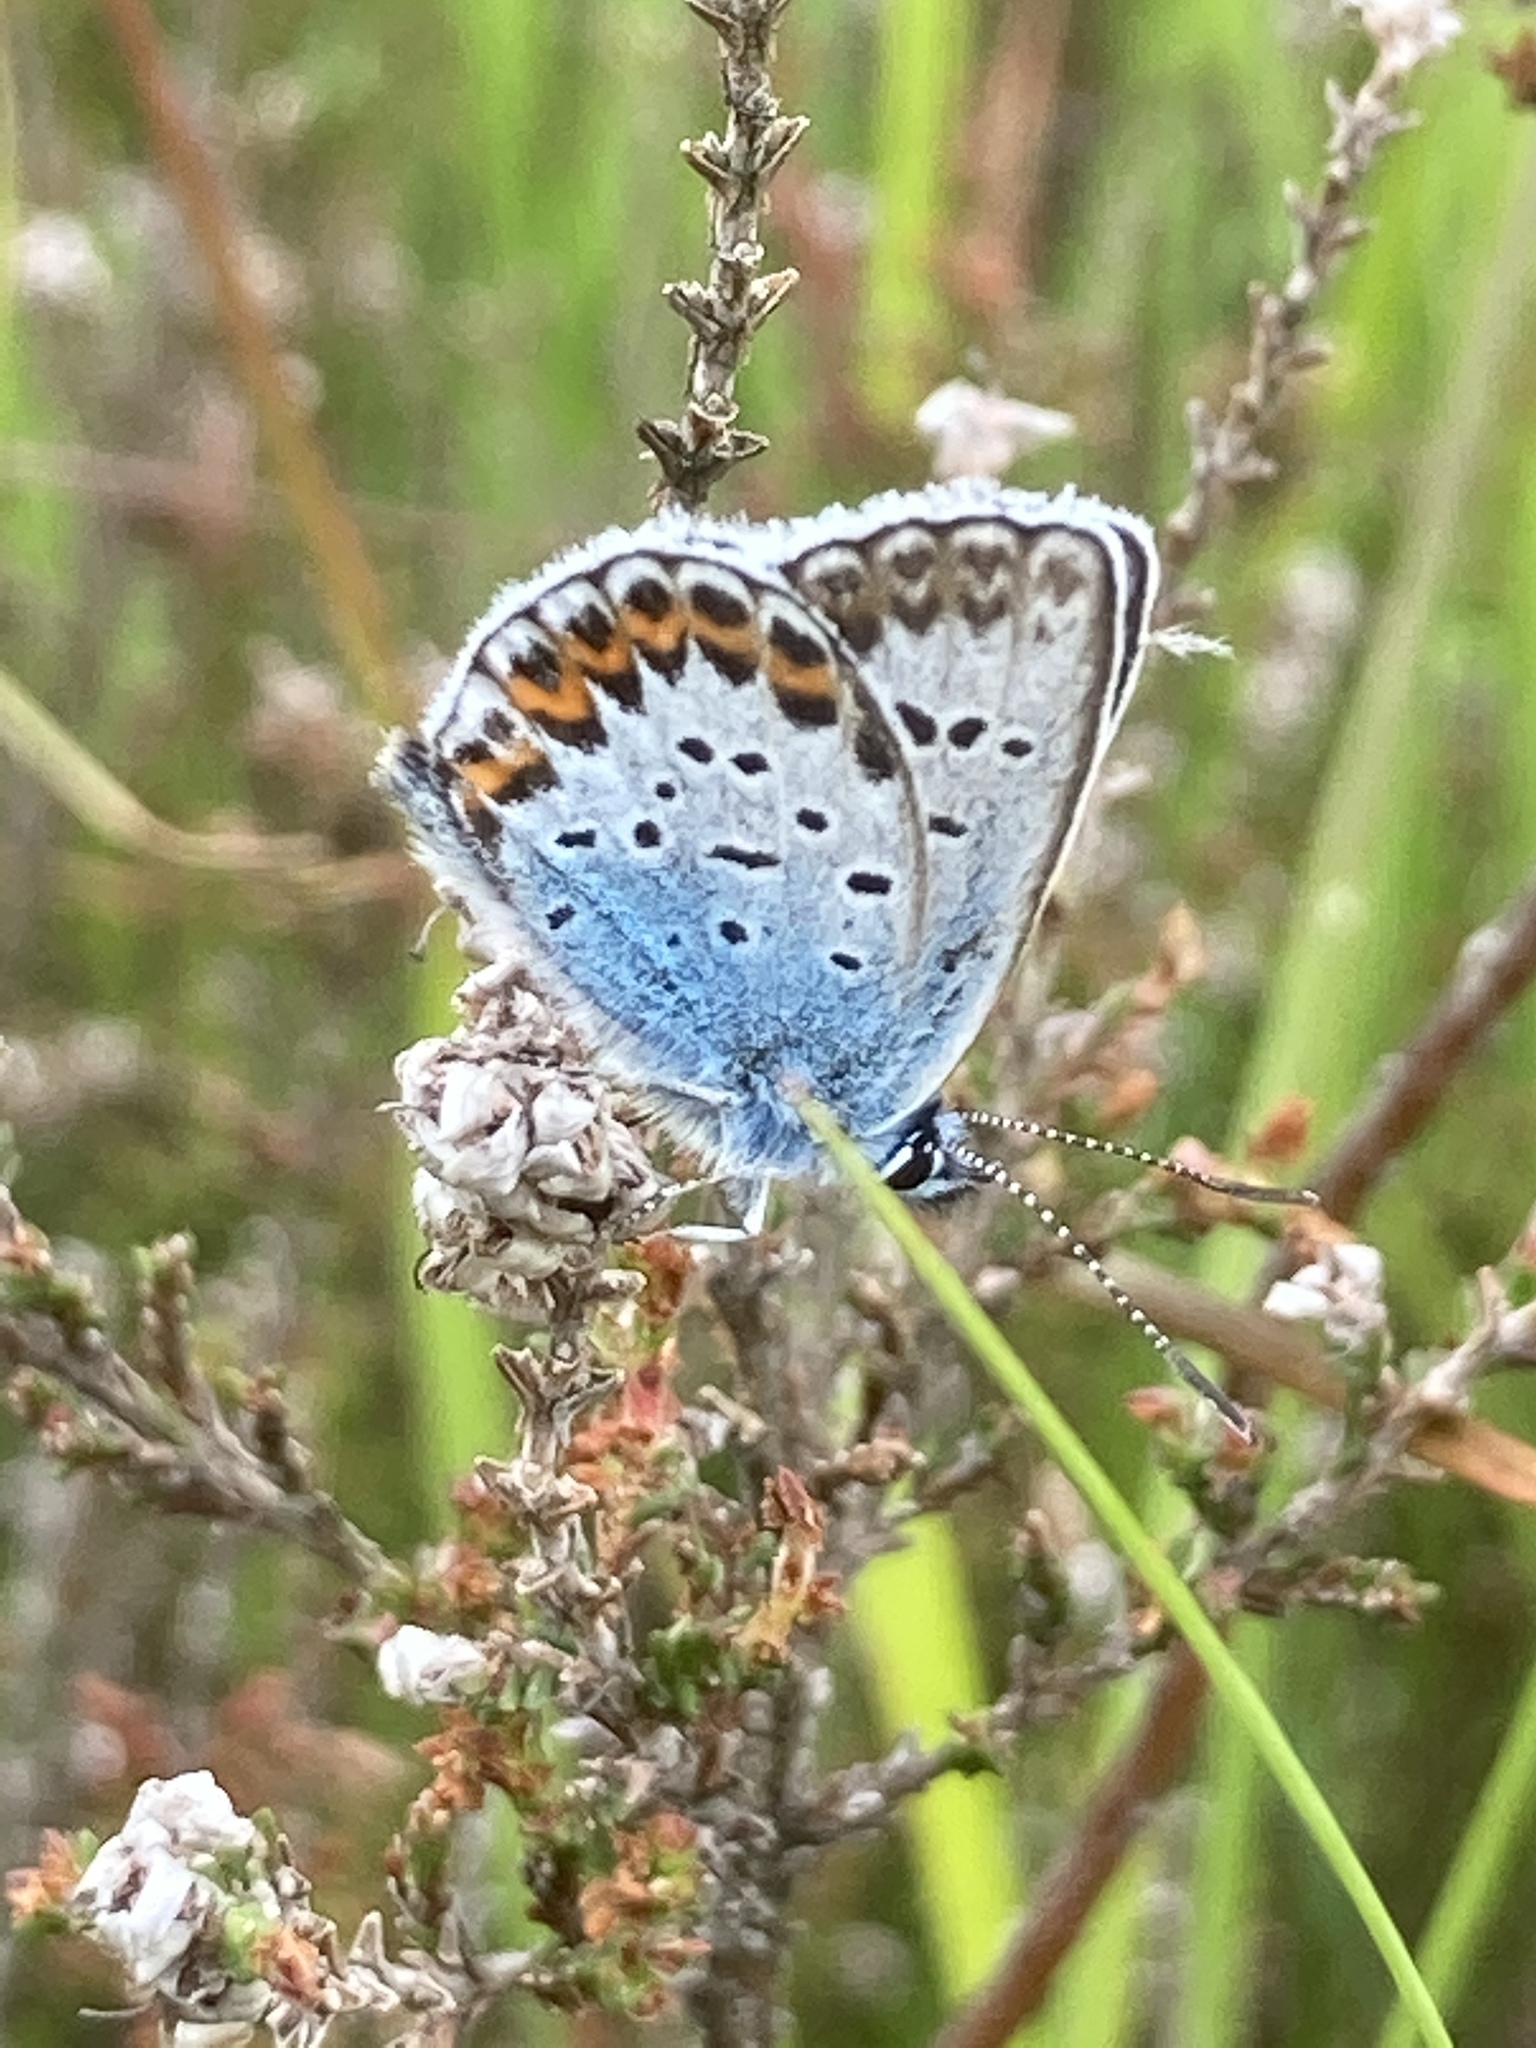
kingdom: Animalia
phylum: Arthropoda
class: Insecta
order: Lepidoptera
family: Lycaenidae
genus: Plebejus
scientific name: Plebejus argus
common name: Silver-studded blue
